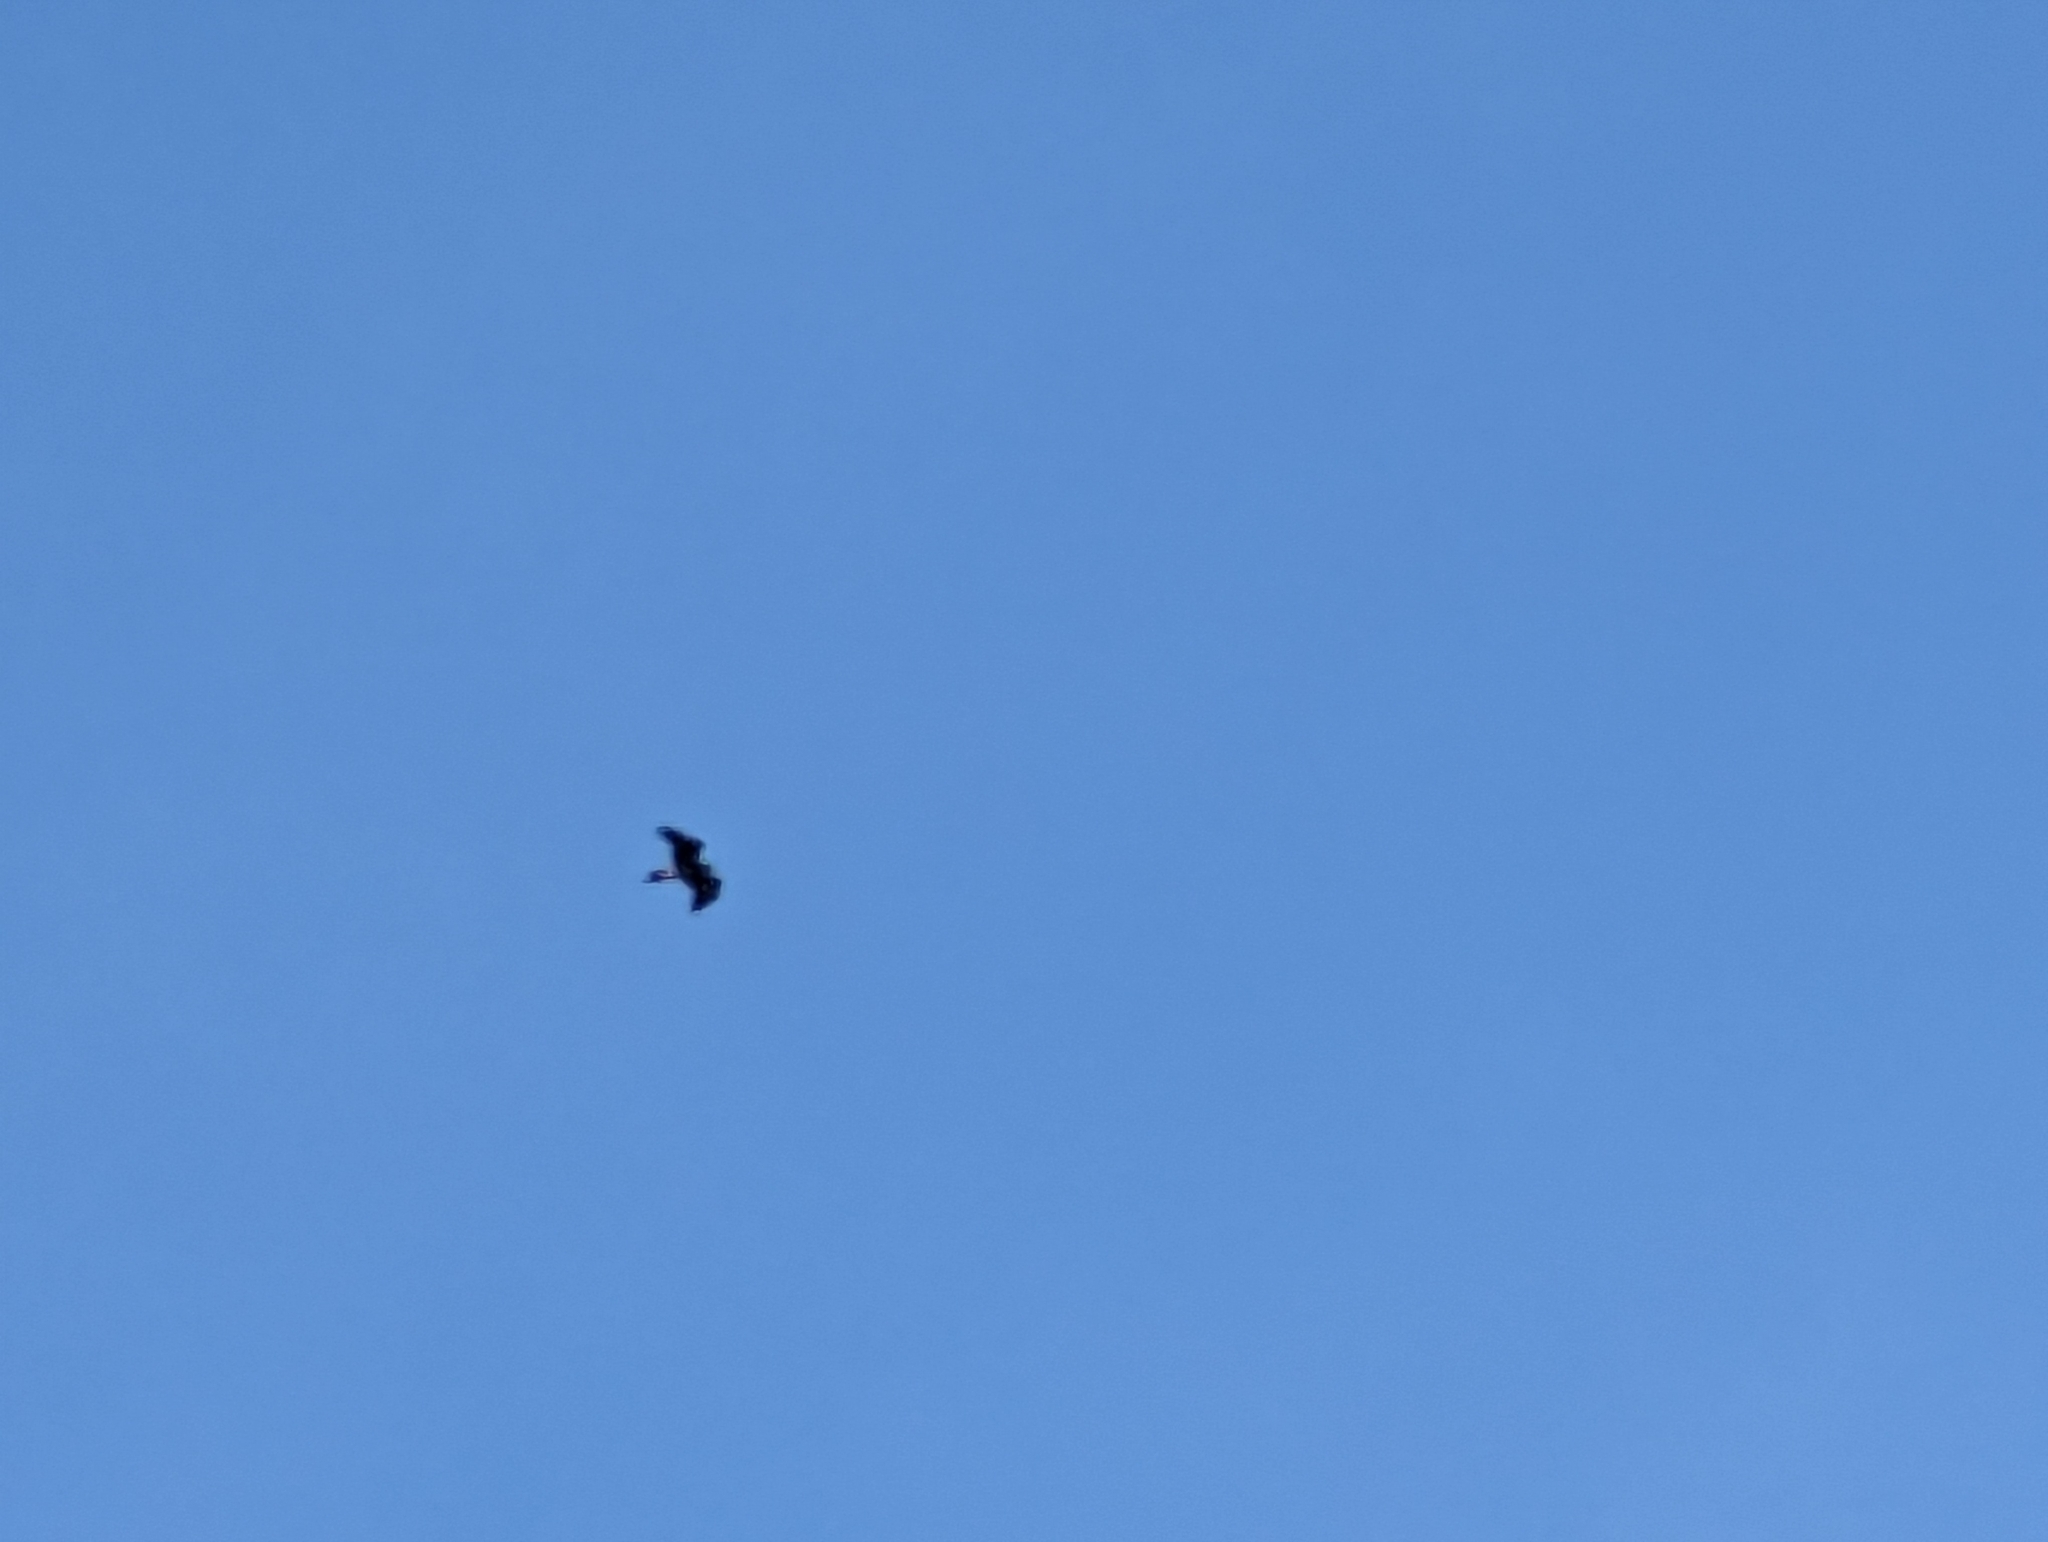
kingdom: Animalia
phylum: Chordata
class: Aves
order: Accipitriformes
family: Accipitridae
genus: Aquila
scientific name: Aquila audax
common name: Wedge-tailed eagle
